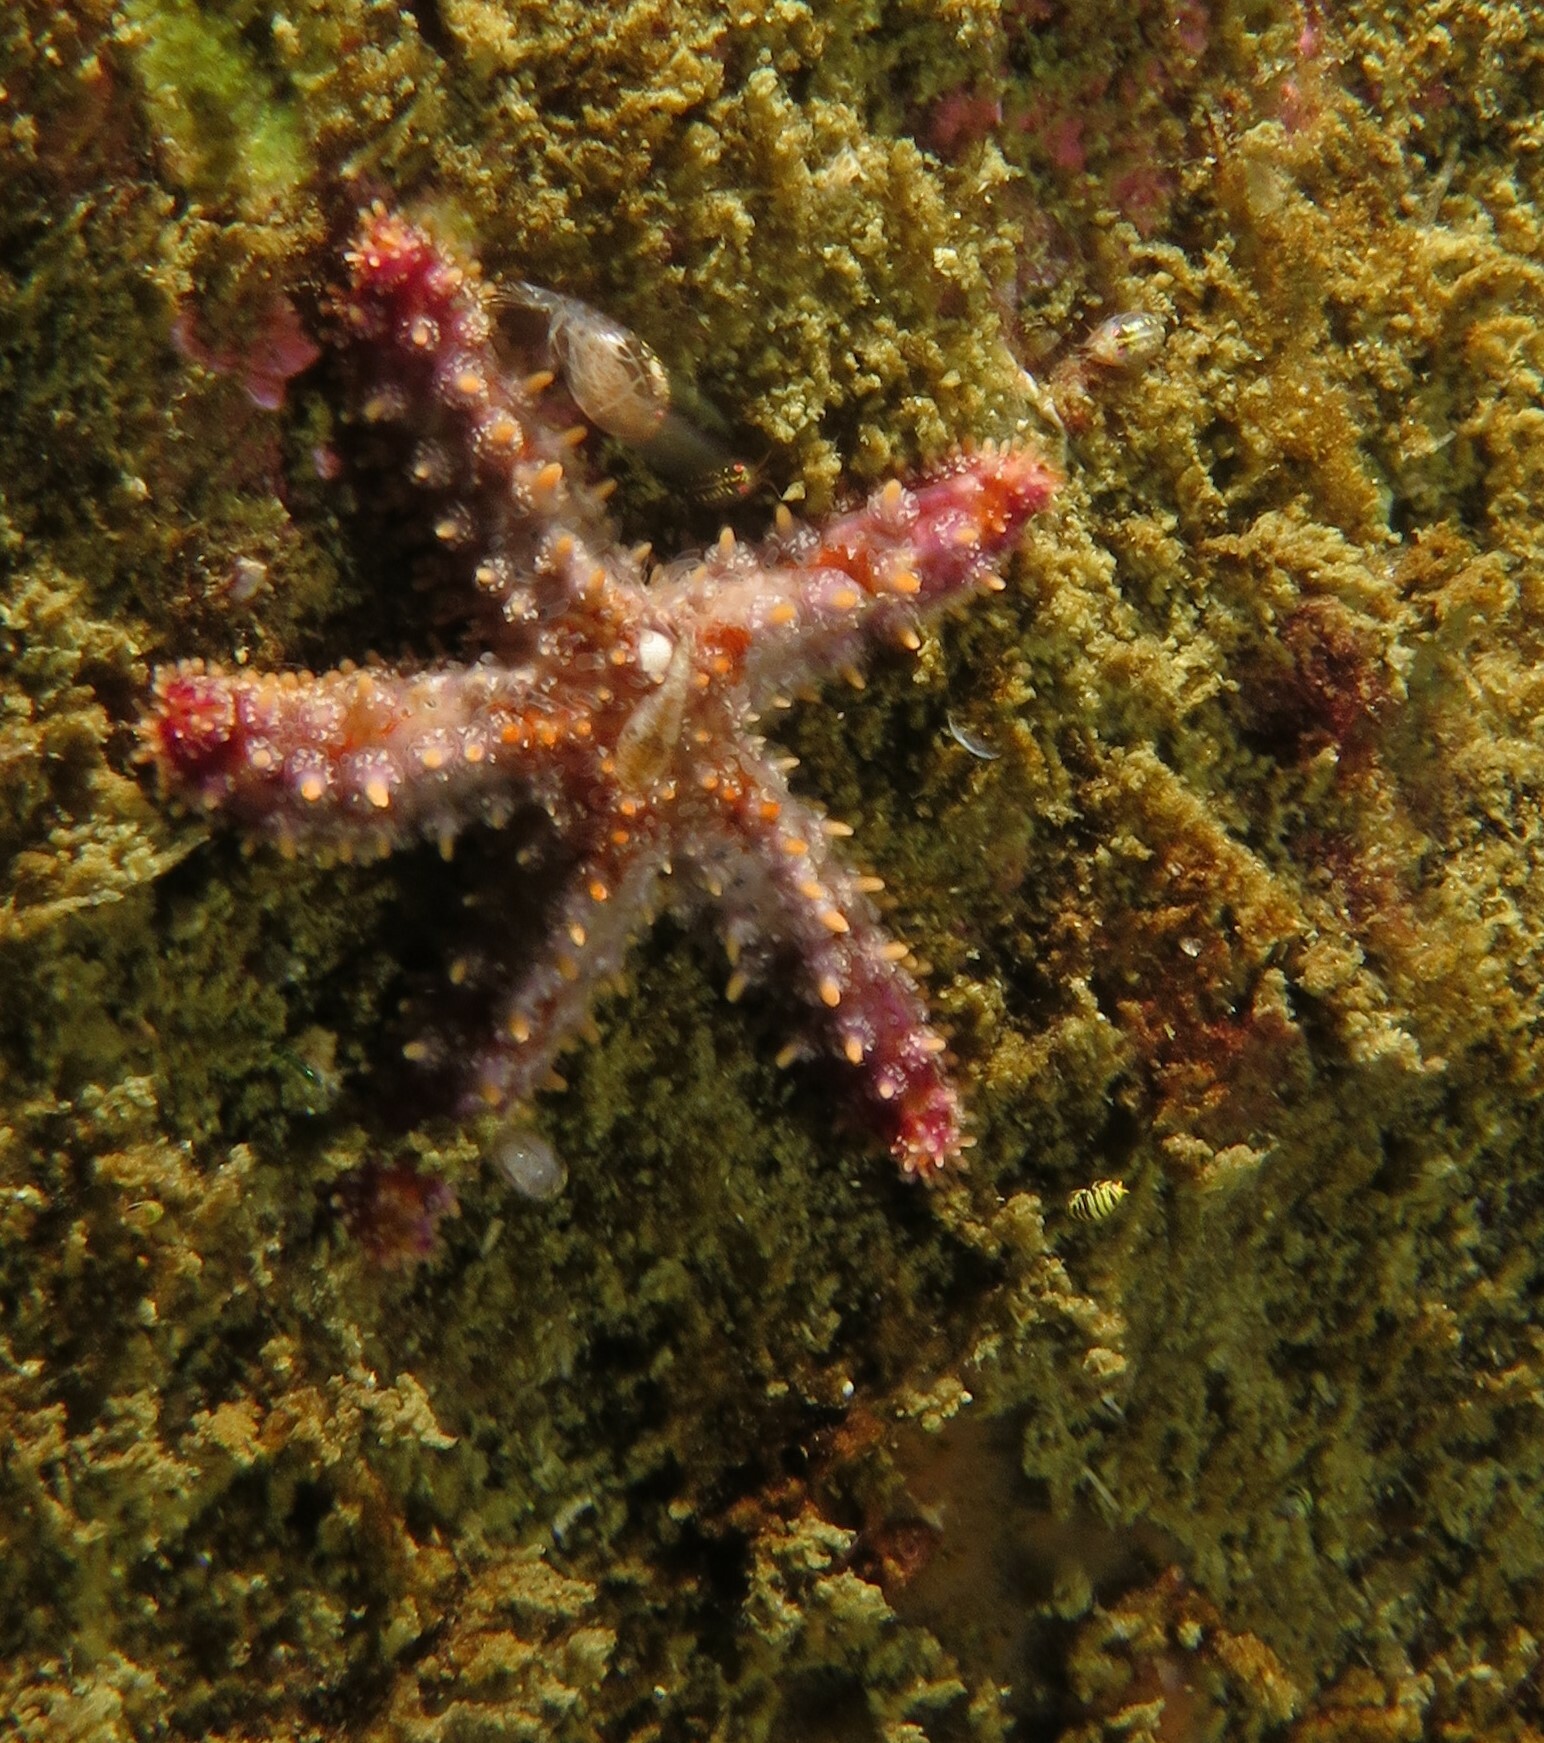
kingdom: Animalia
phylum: Echinodermata
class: Asteroidea
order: Forcipulatida
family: Asteriidae
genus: Marthasterias
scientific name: Marthasterias africana
